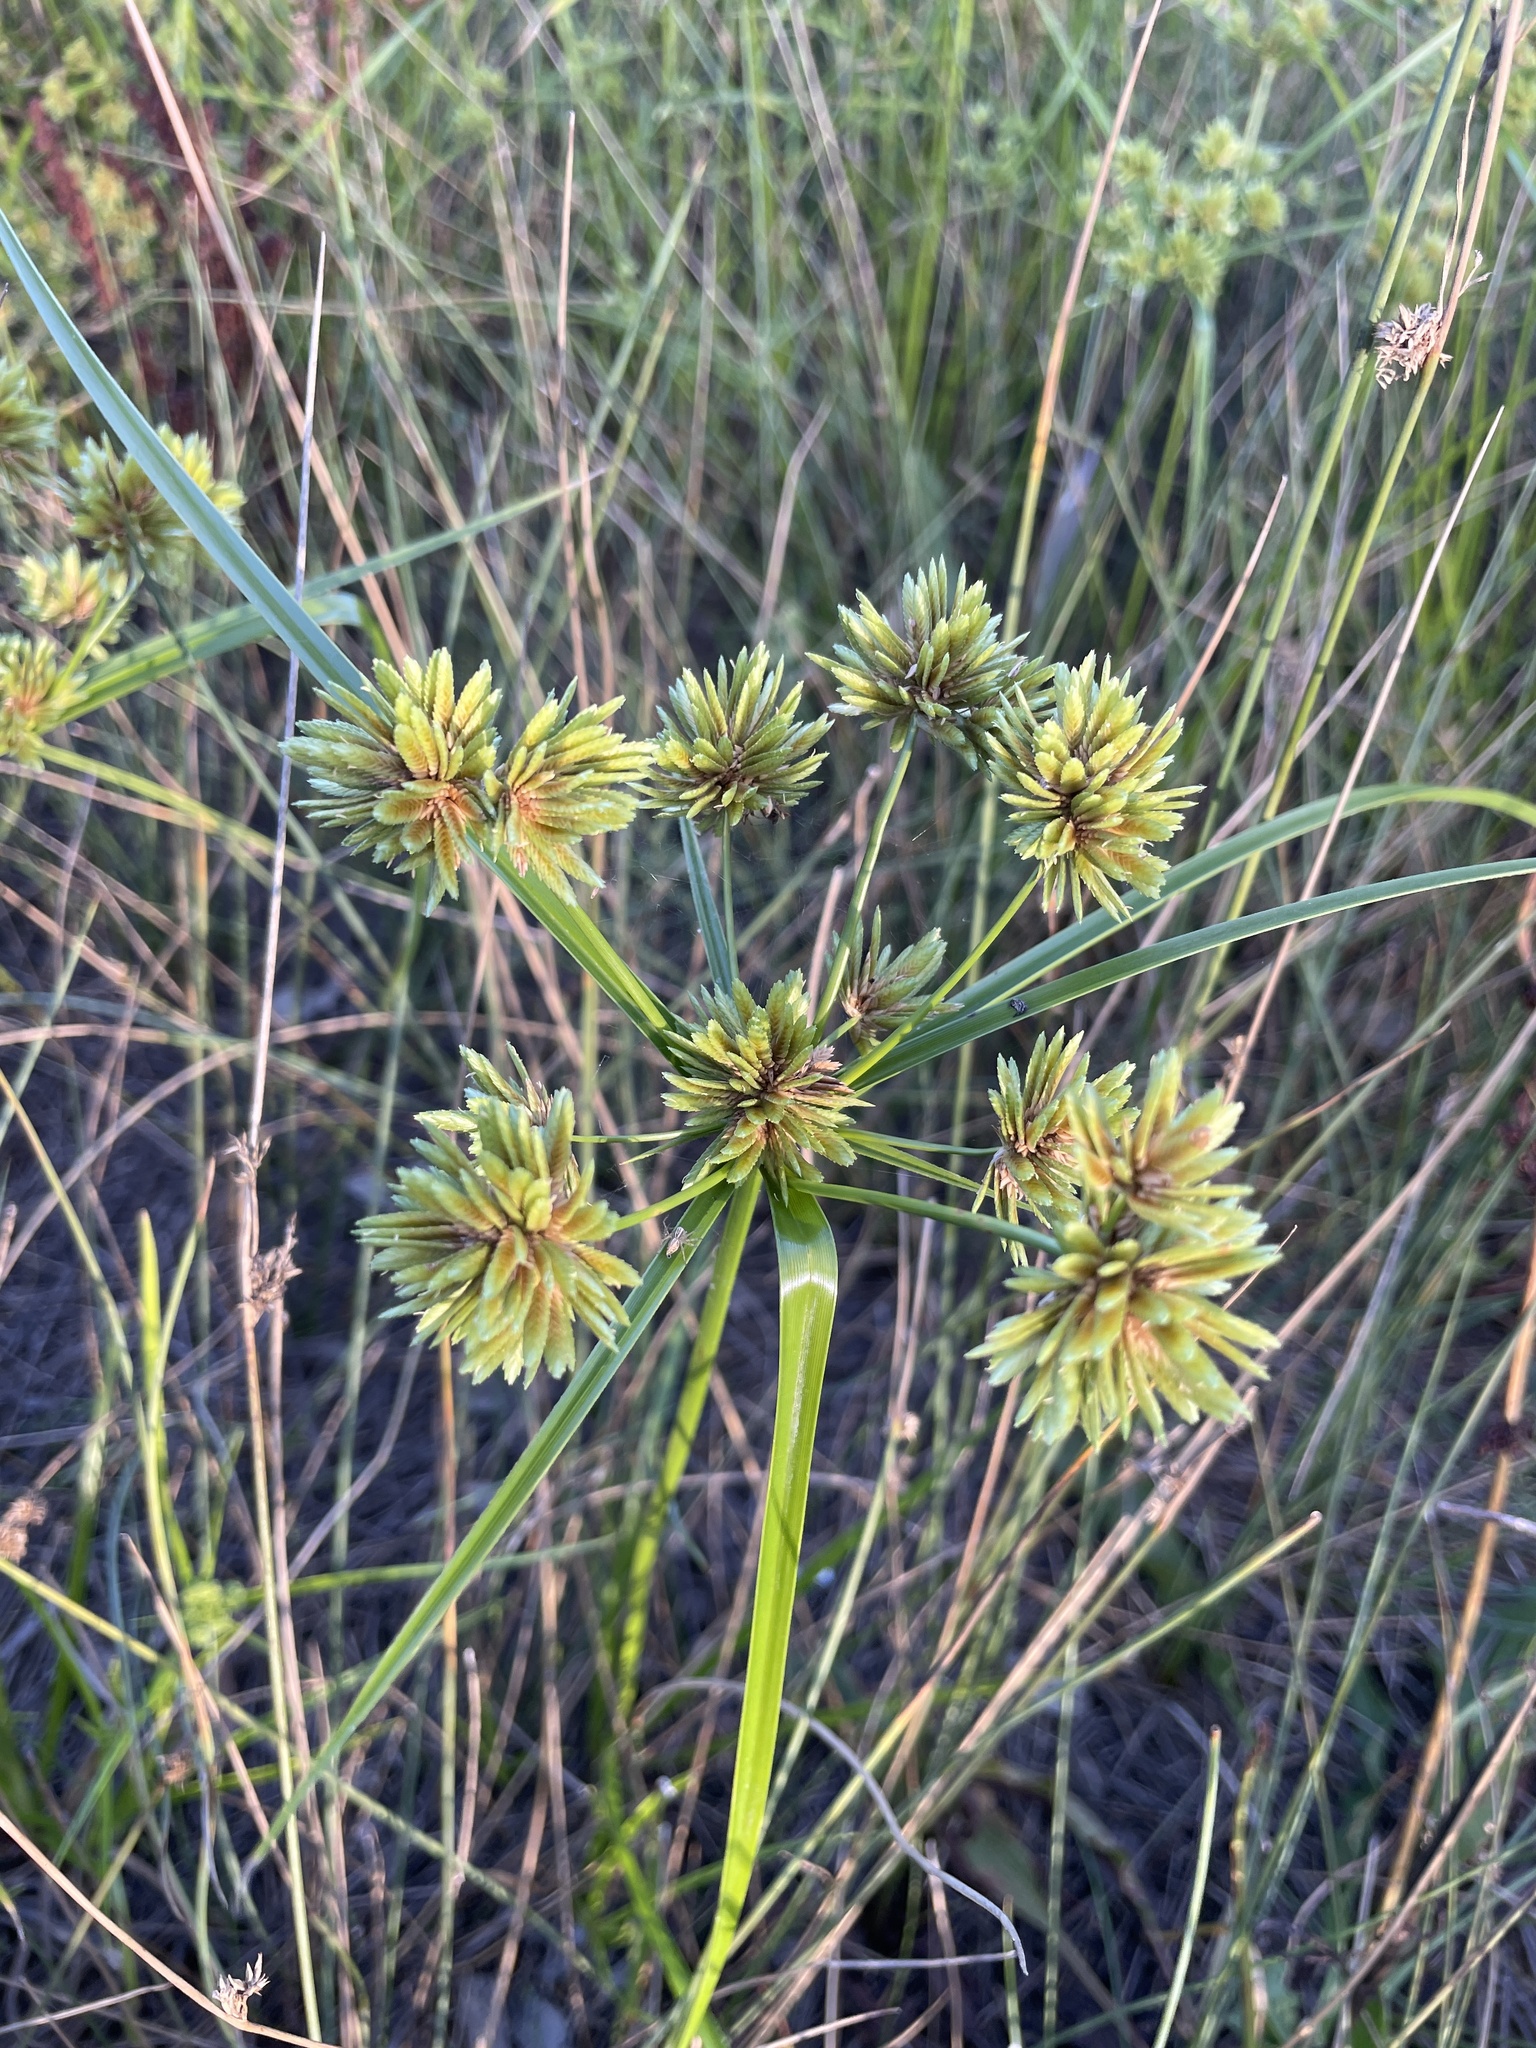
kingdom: Plantae
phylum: Tracheophyta
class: Liliopsida
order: Poales
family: Cyperaceae
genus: Cyperus
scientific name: Cyperus eragrostis
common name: Tall flatsedge
